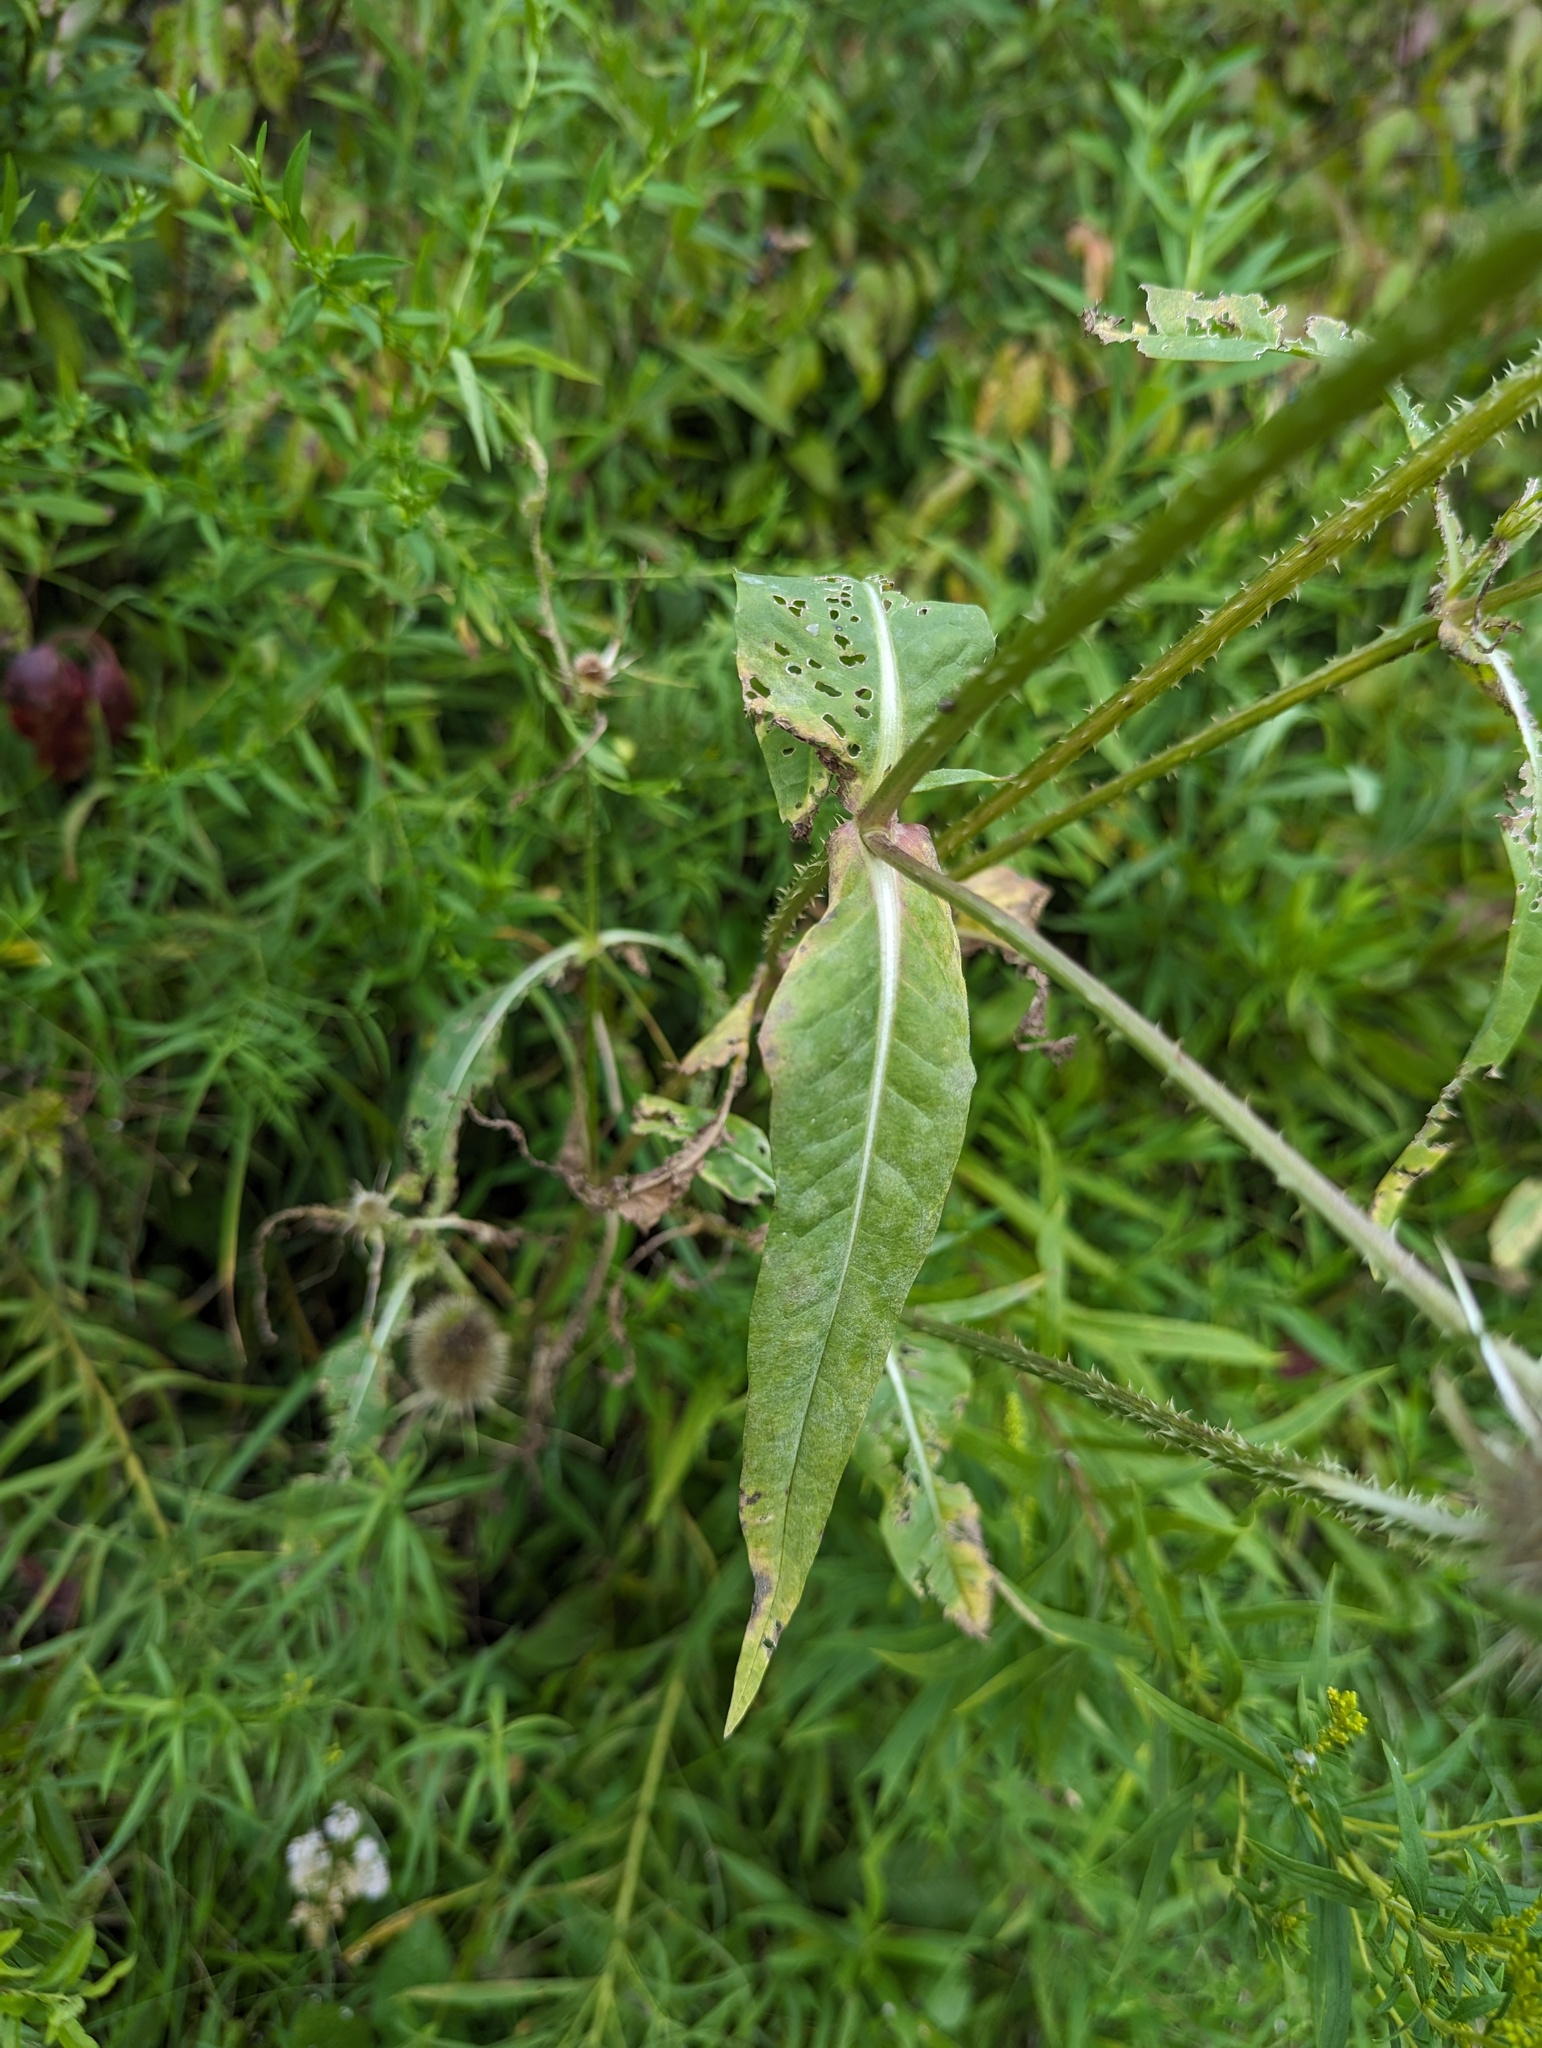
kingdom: Plantae
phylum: Tracheophyta
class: Magnoliopsida
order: Dipsacales
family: Caprifoliaceae
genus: Dipsacus
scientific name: Dipsacus fullonum
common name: Teasel
